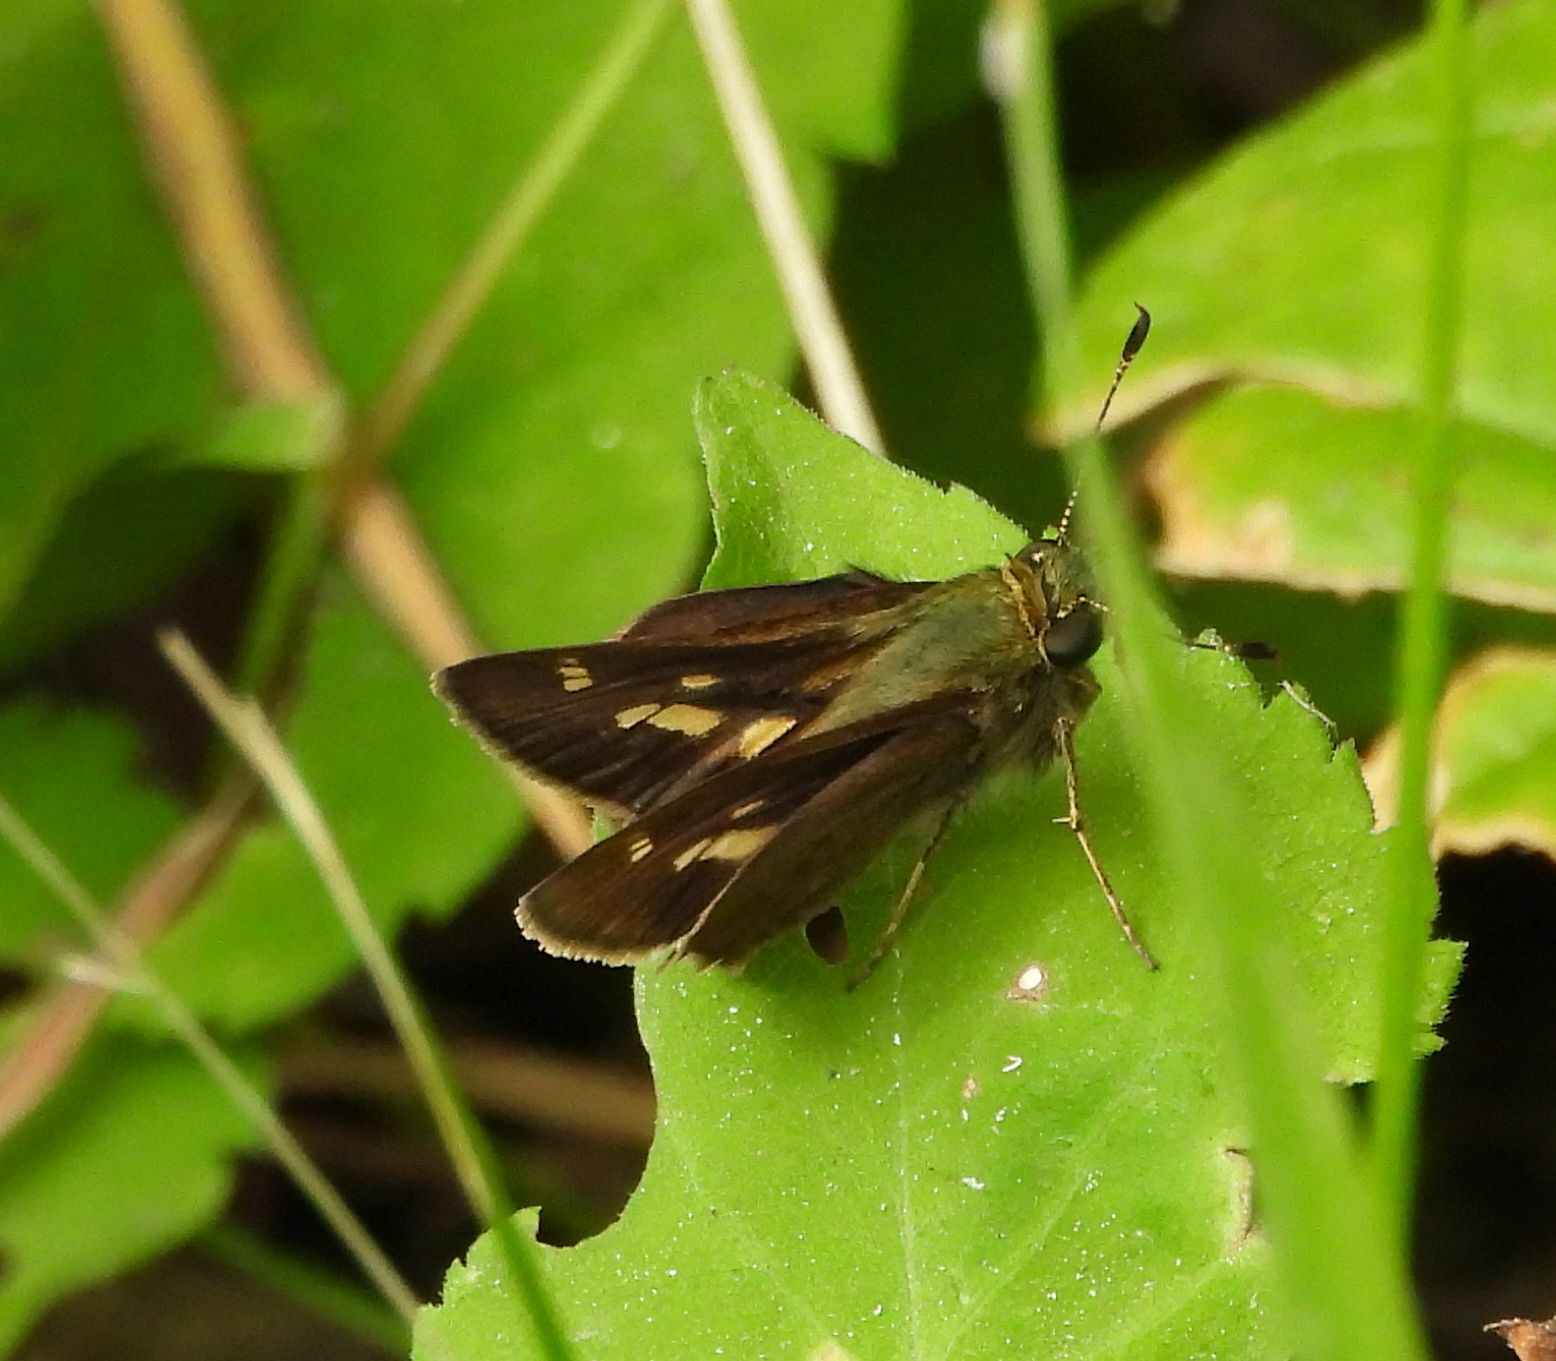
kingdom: Animalia
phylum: Arthropoda
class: Insecta
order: Lepidoptera
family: Hesperiidae
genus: Vernia
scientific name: Vernia verna
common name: Little glassywing
